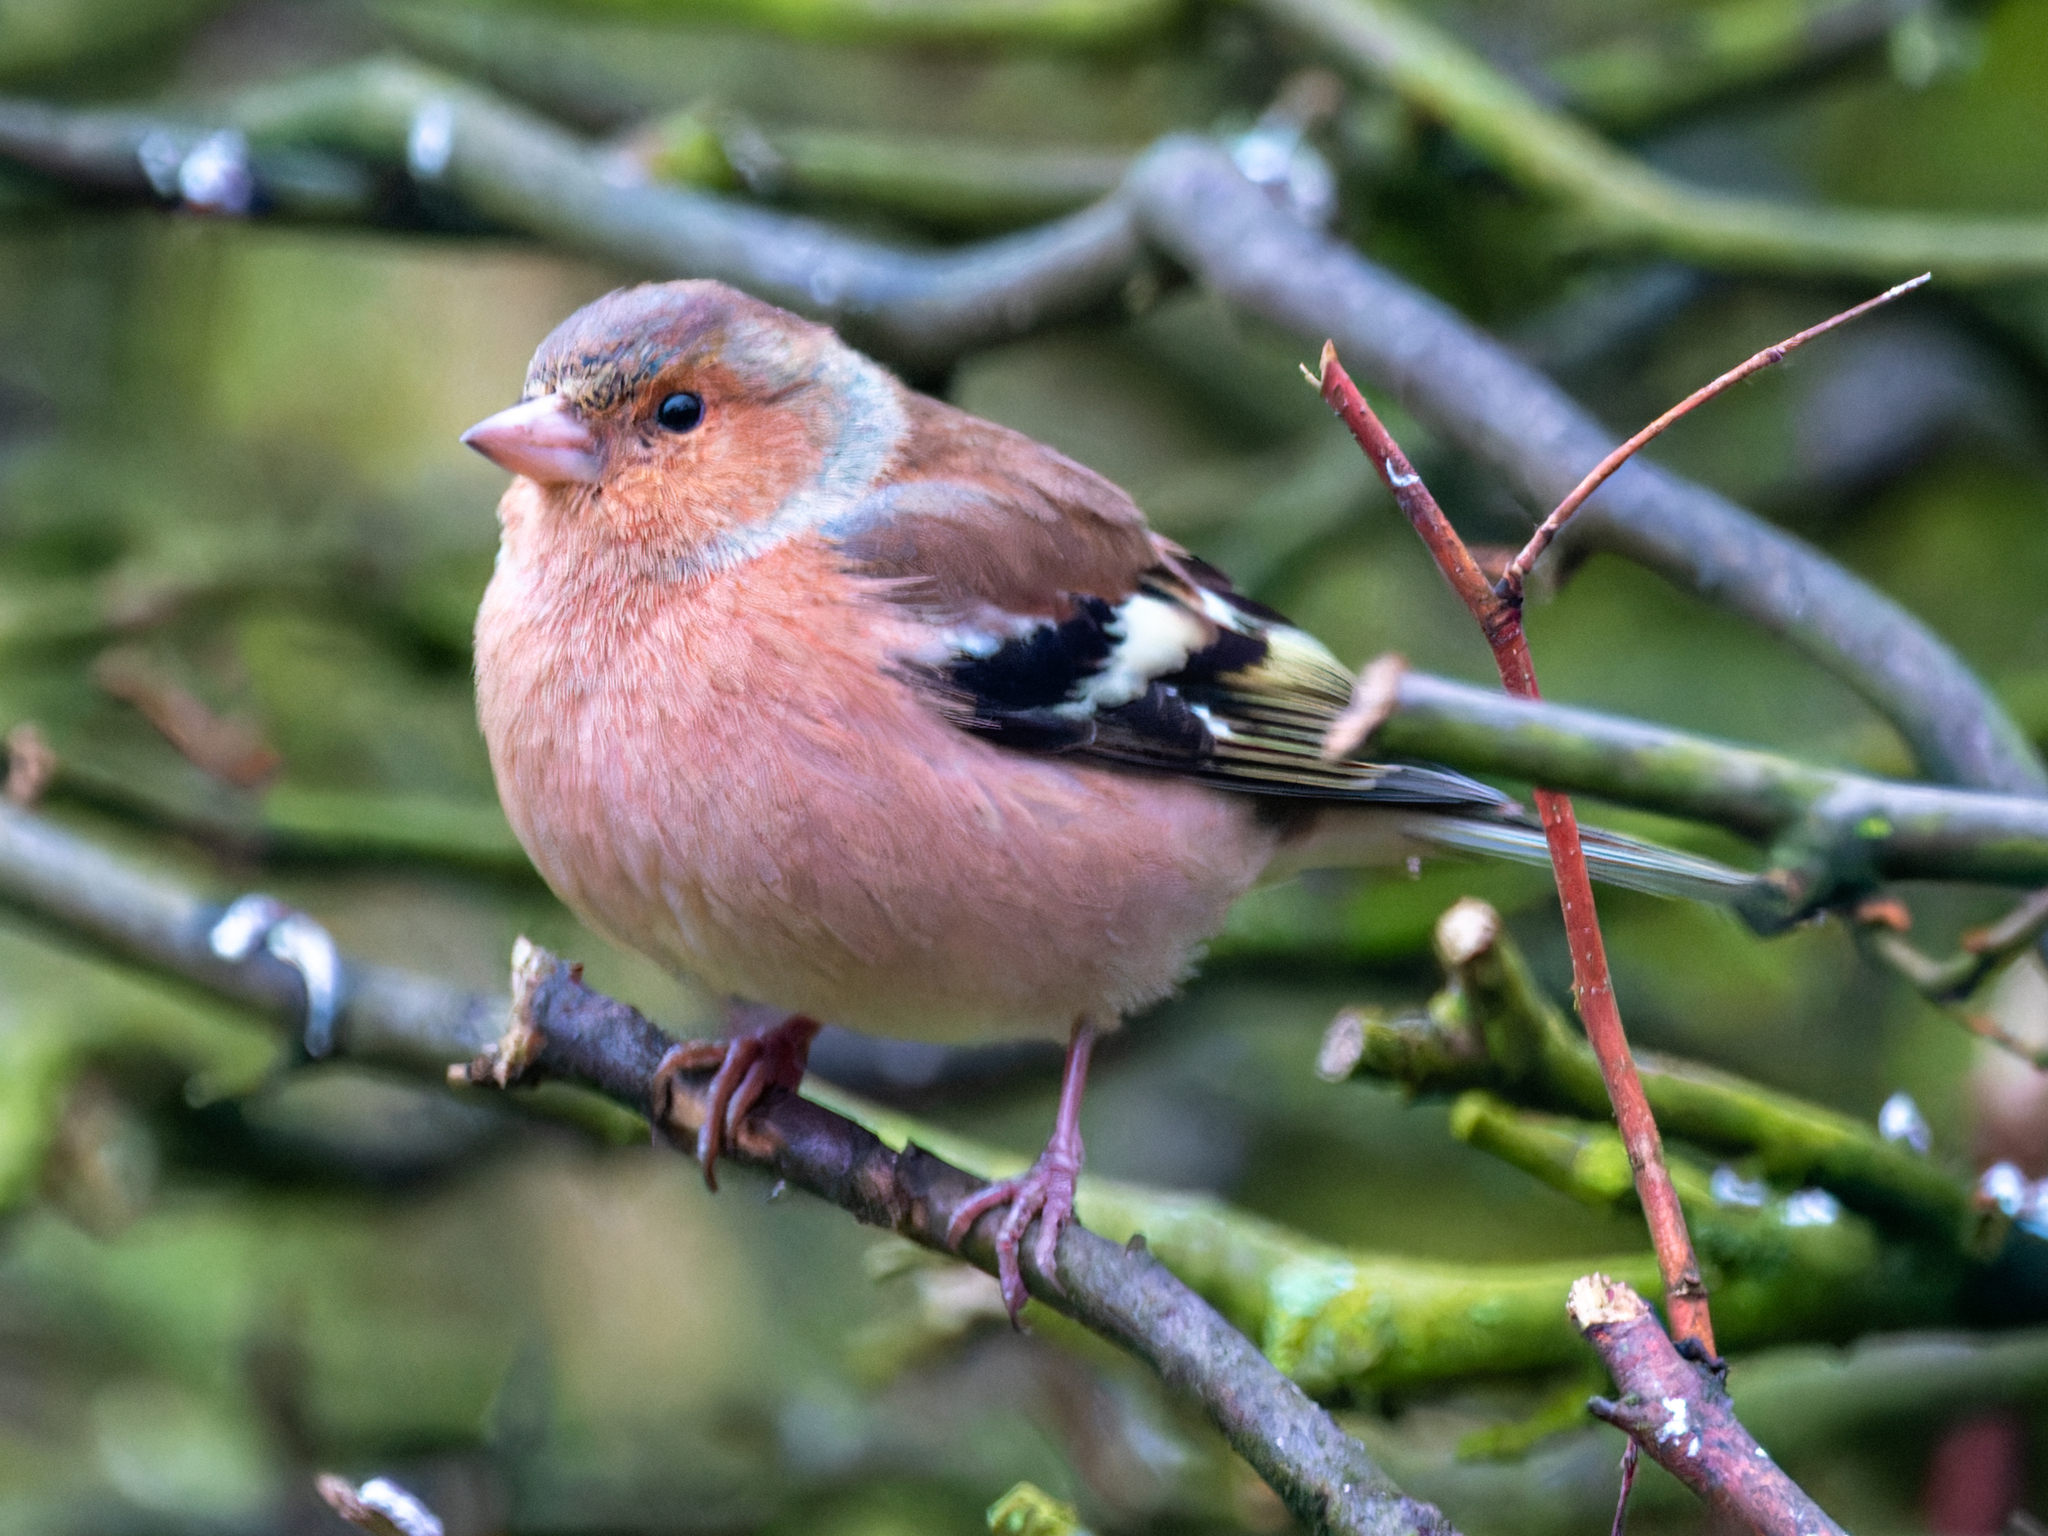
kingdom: Animalia
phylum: Chordata
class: Aves
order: Passeriformes
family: Fringillidae
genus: Fringilla
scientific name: Fringilla coelebs
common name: Common chaffinch
